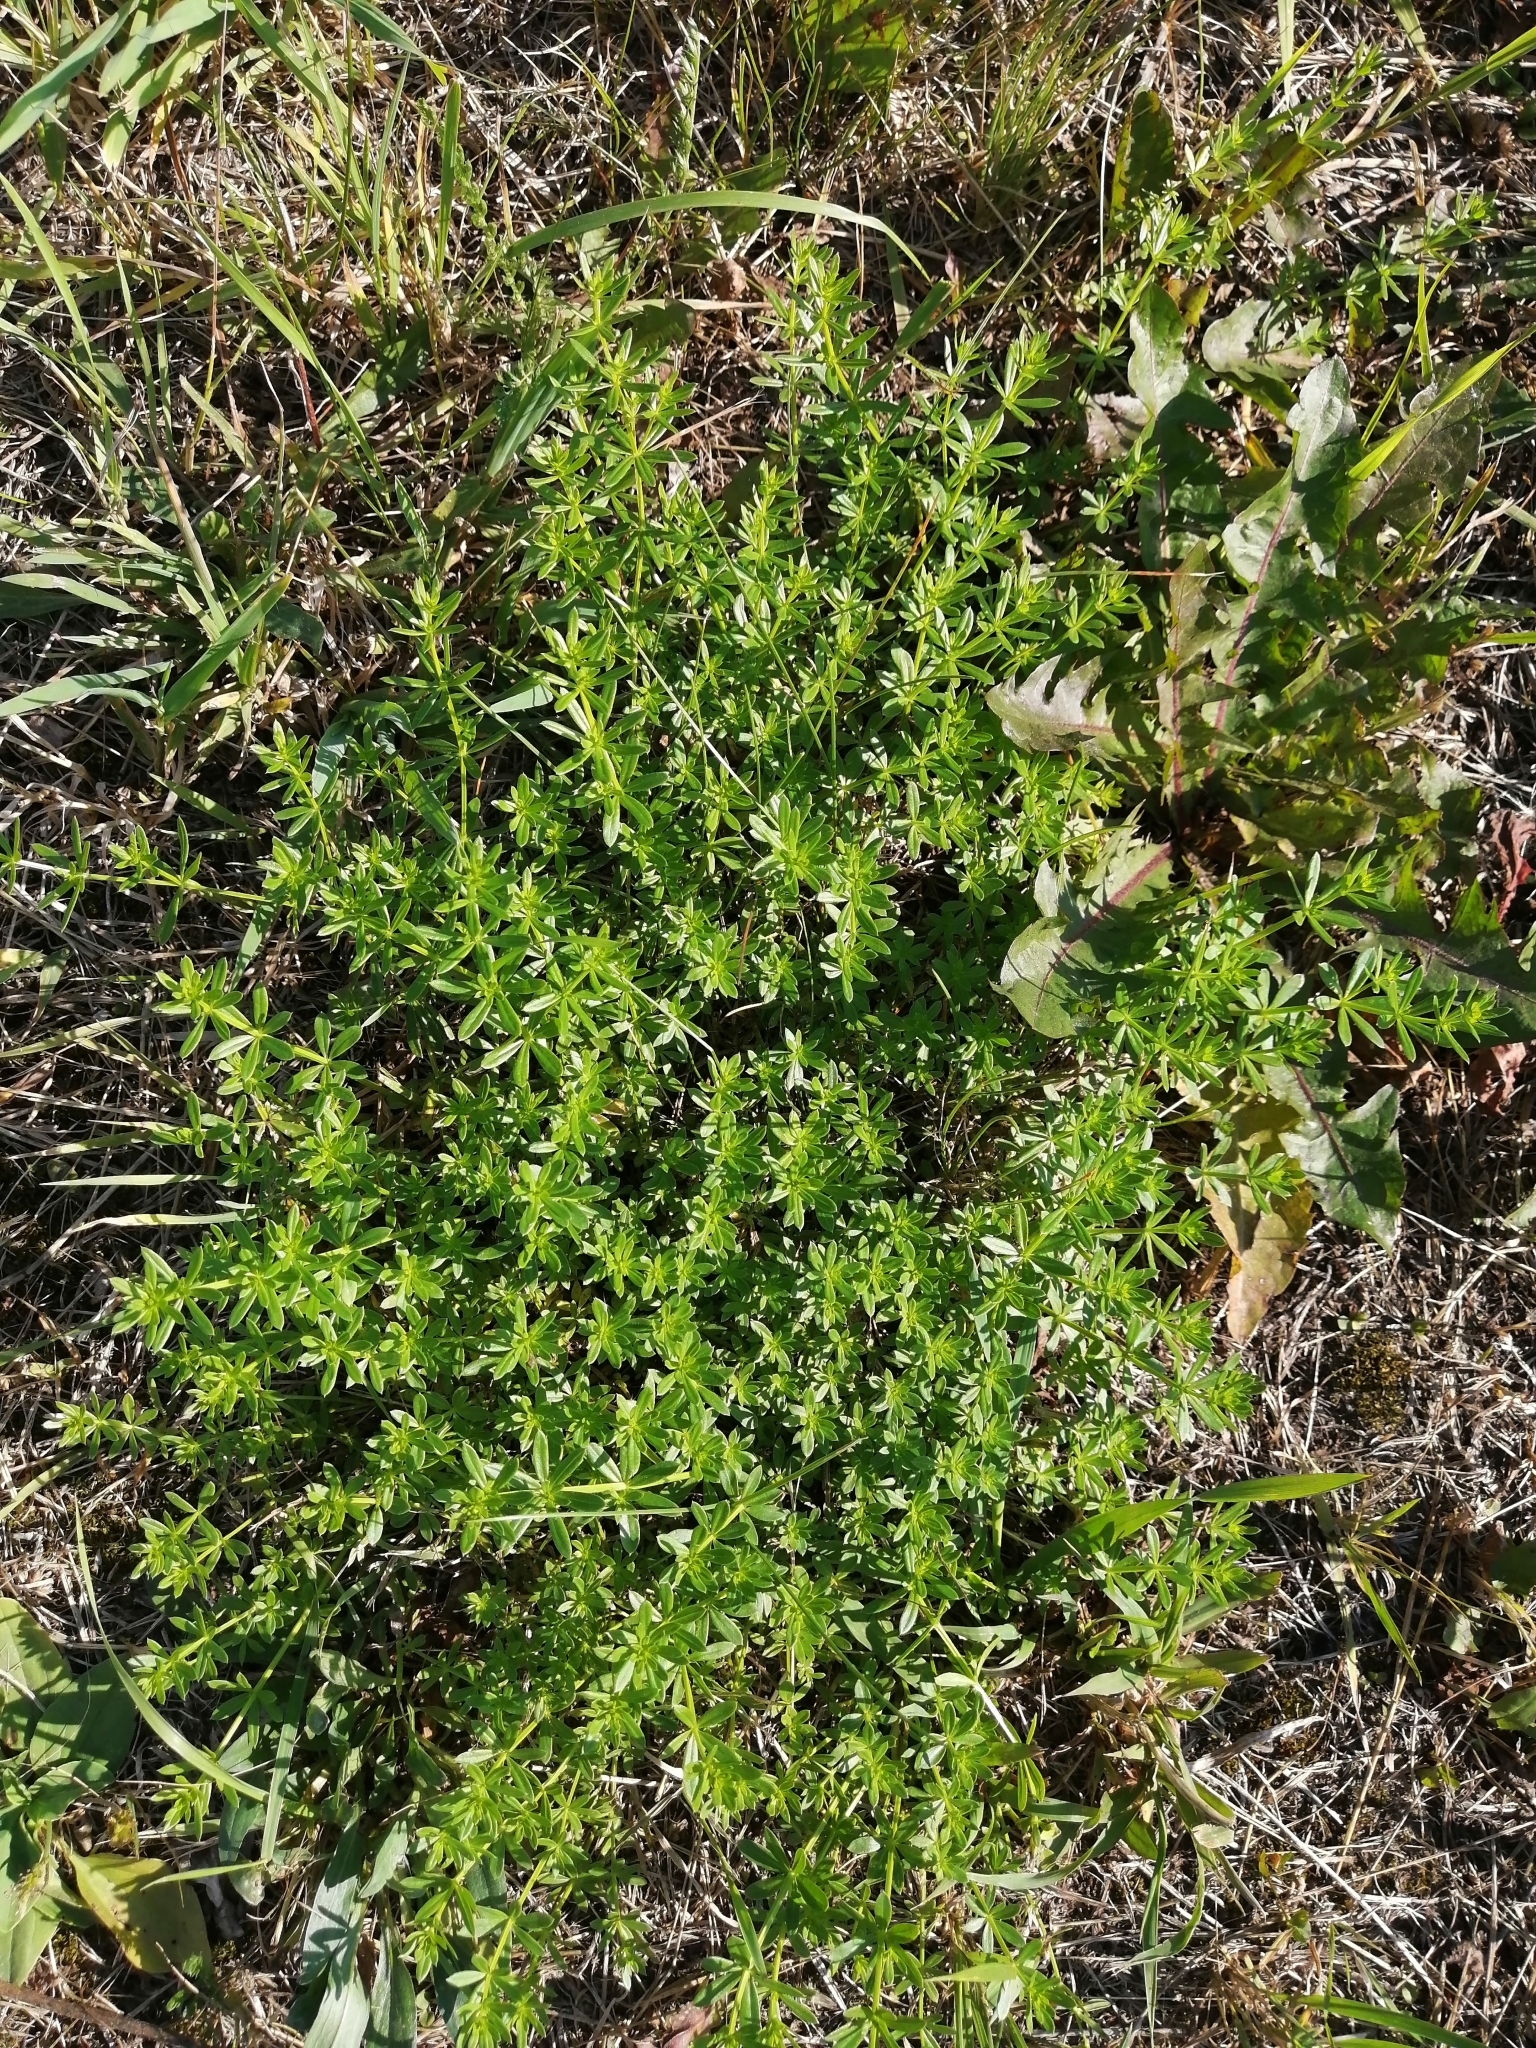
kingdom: Plantae
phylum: Tracheophyta
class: Magnoliopsida
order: Gentianales
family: Rubiaceae
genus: Galium
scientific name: Galium mollugo
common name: Hedge bedstraw
